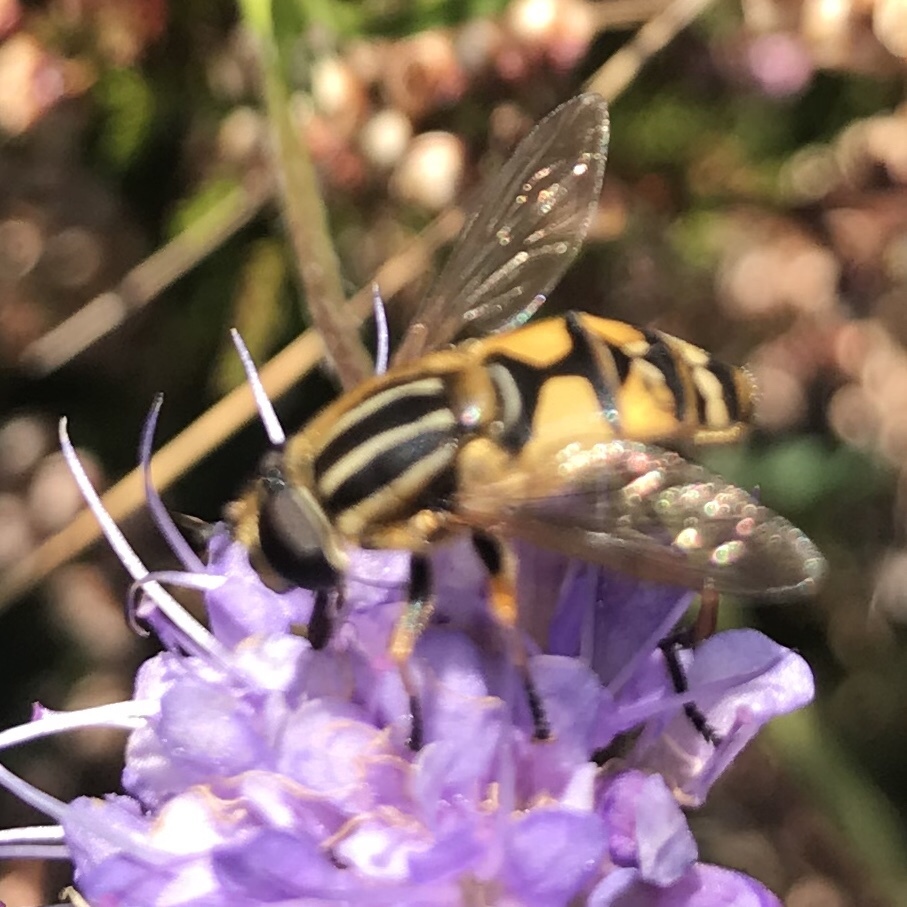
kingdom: Animalia
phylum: Arthropoda
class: Insecta
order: Diptera
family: Syrphidae
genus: Helophilus
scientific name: Helophilus pendulus
